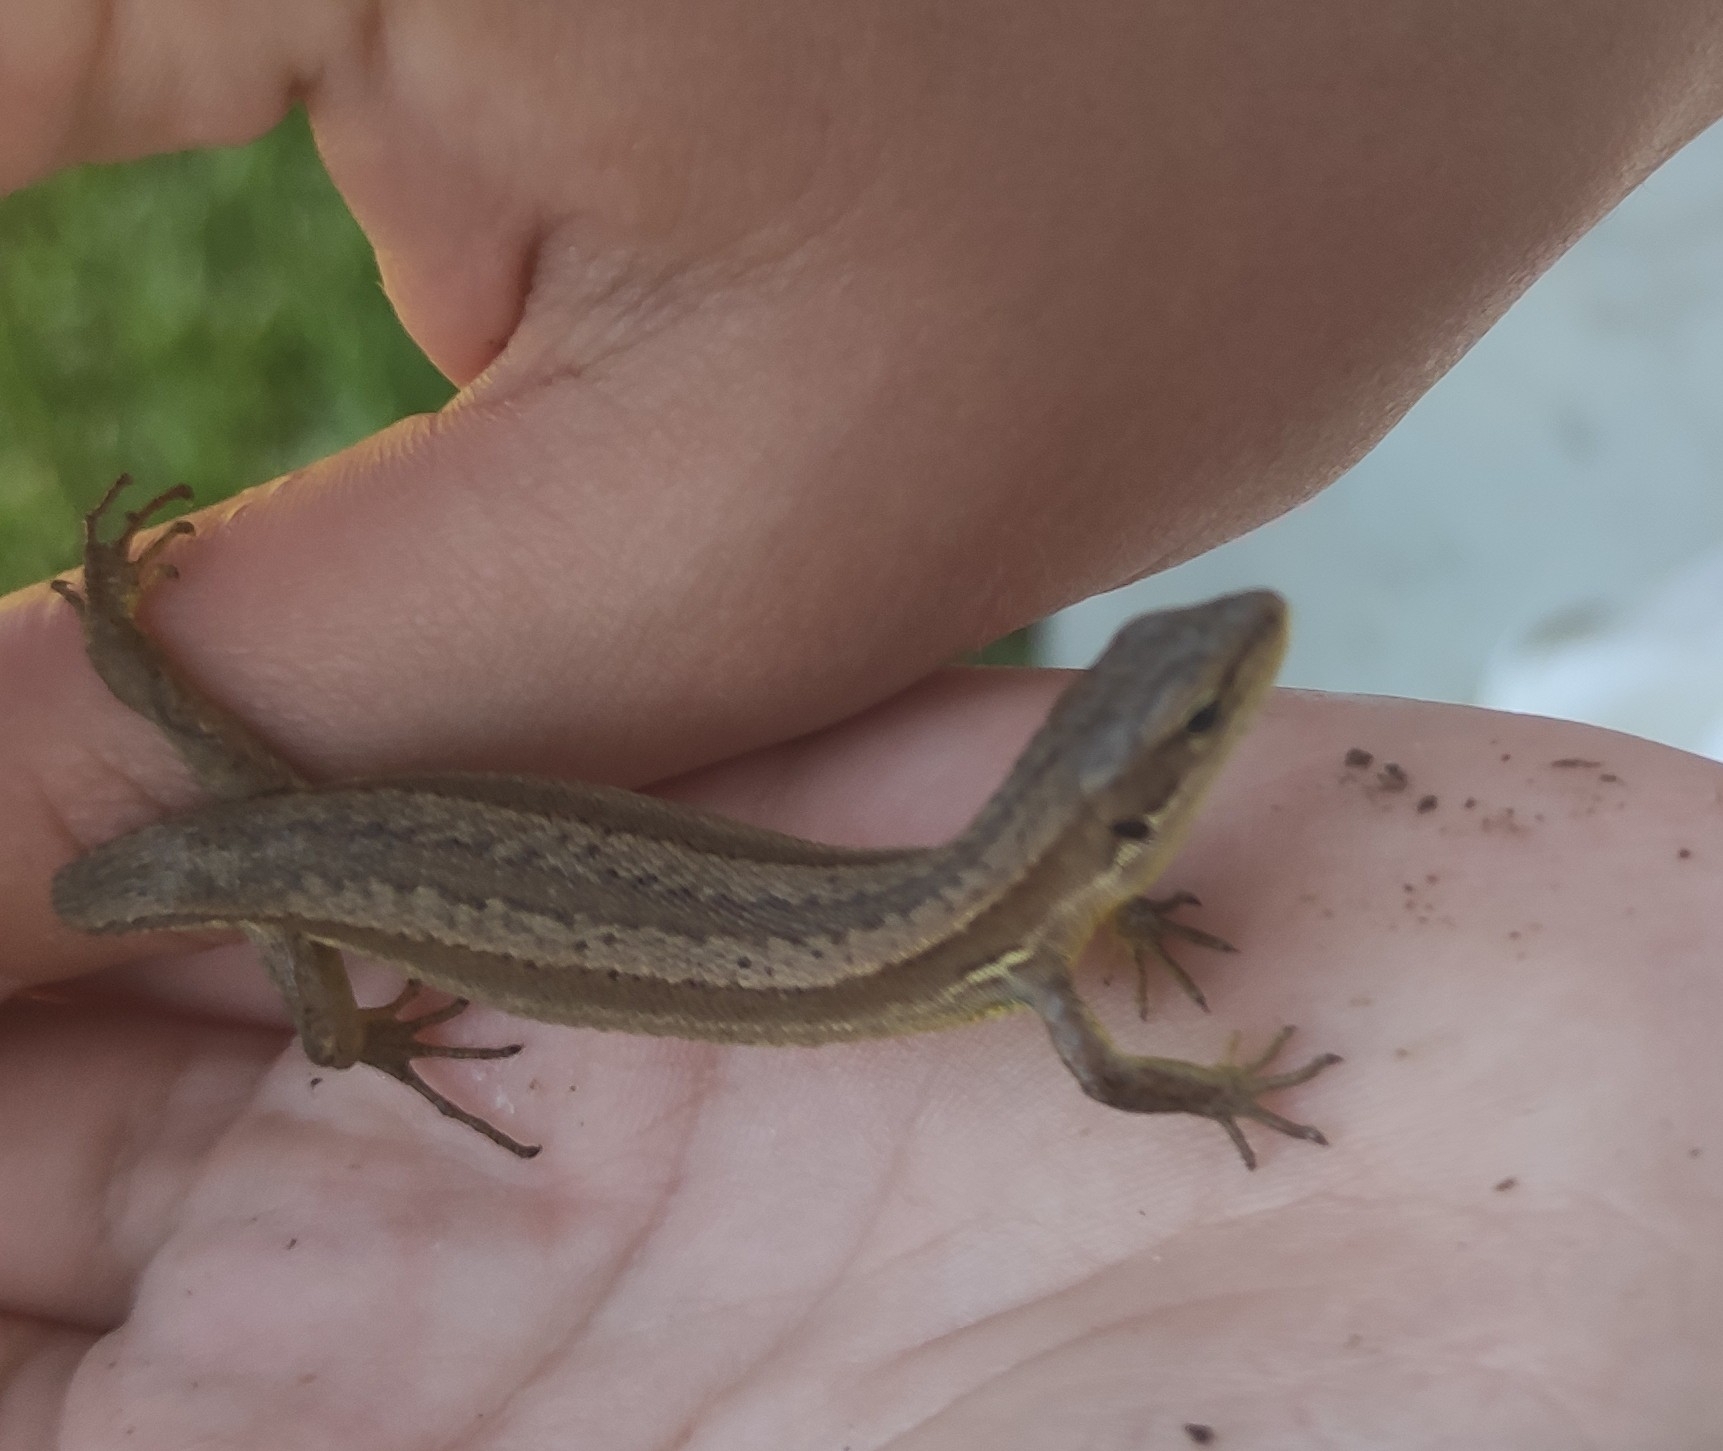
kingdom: Animalia
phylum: Chordata
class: Squamata
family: Lacertidae
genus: Darevskia
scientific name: Darevskia praticola
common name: Meadow lizard
